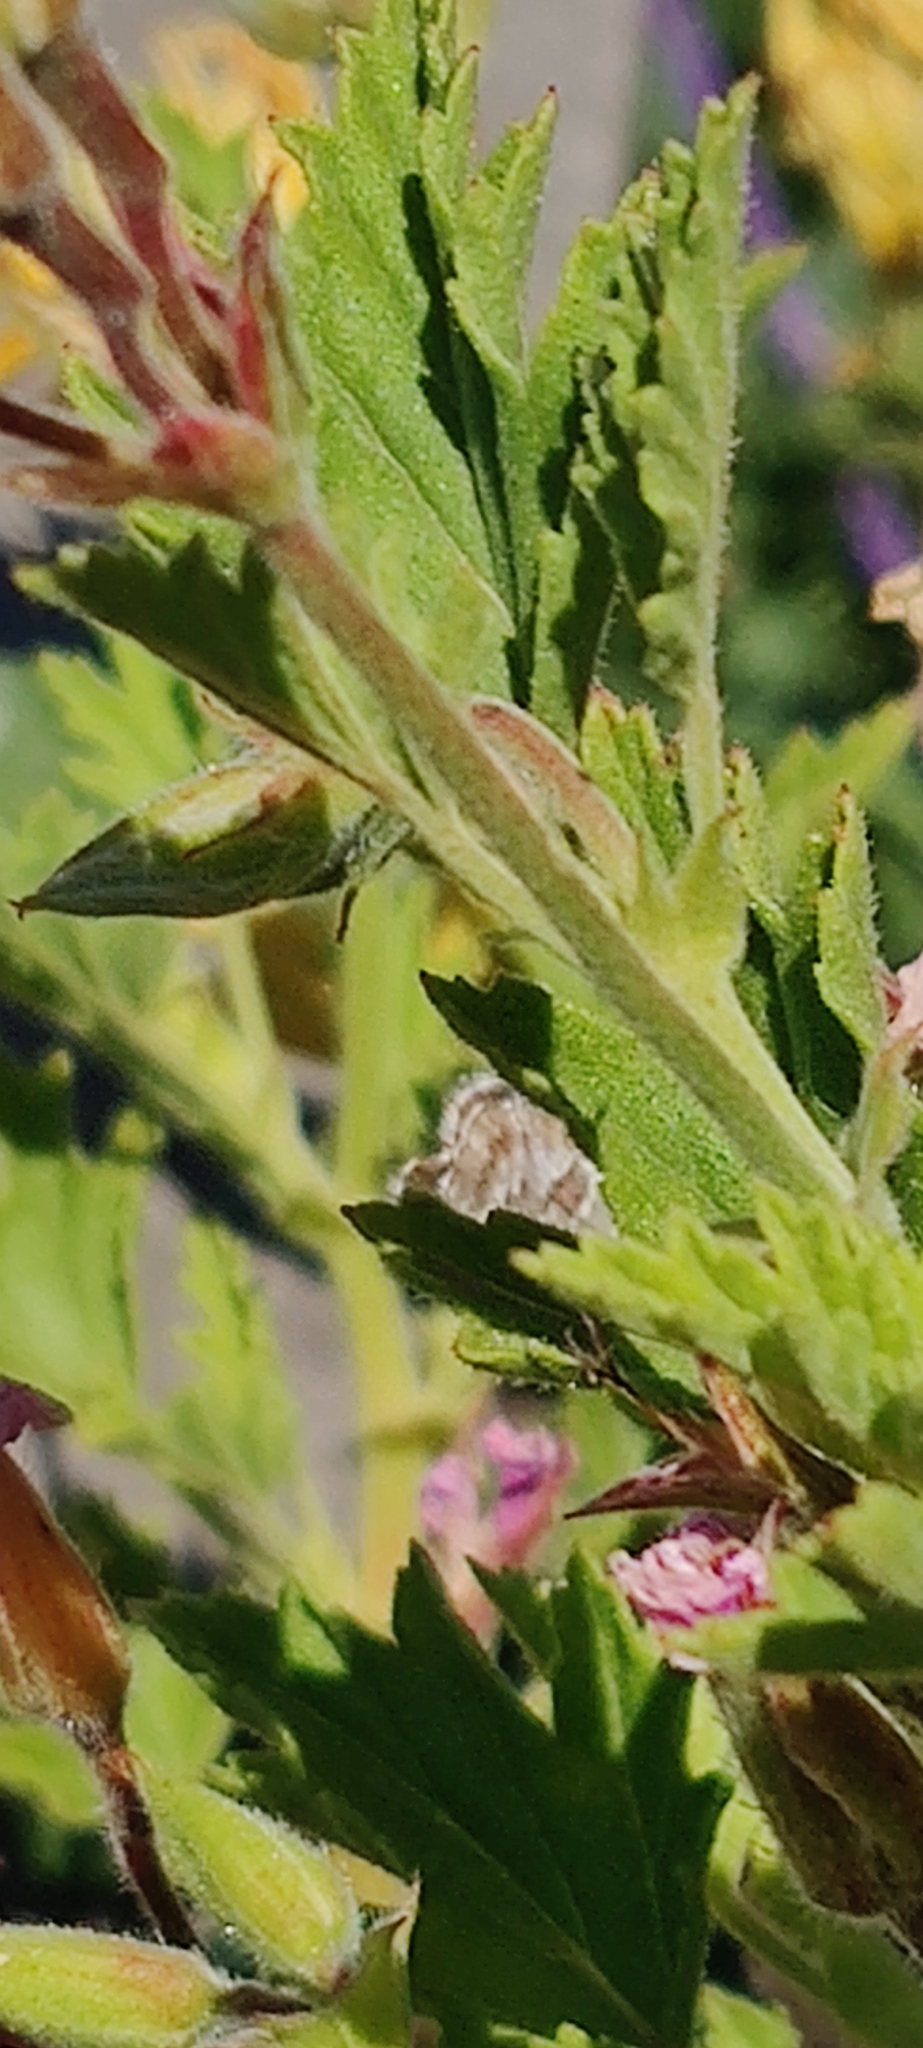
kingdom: Animalia
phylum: Arthropoda
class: Insecta
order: Lepidoptera
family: Lycaenidae
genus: Cacyreus
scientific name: Cacyreus marshalli
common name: Geranium bronze
